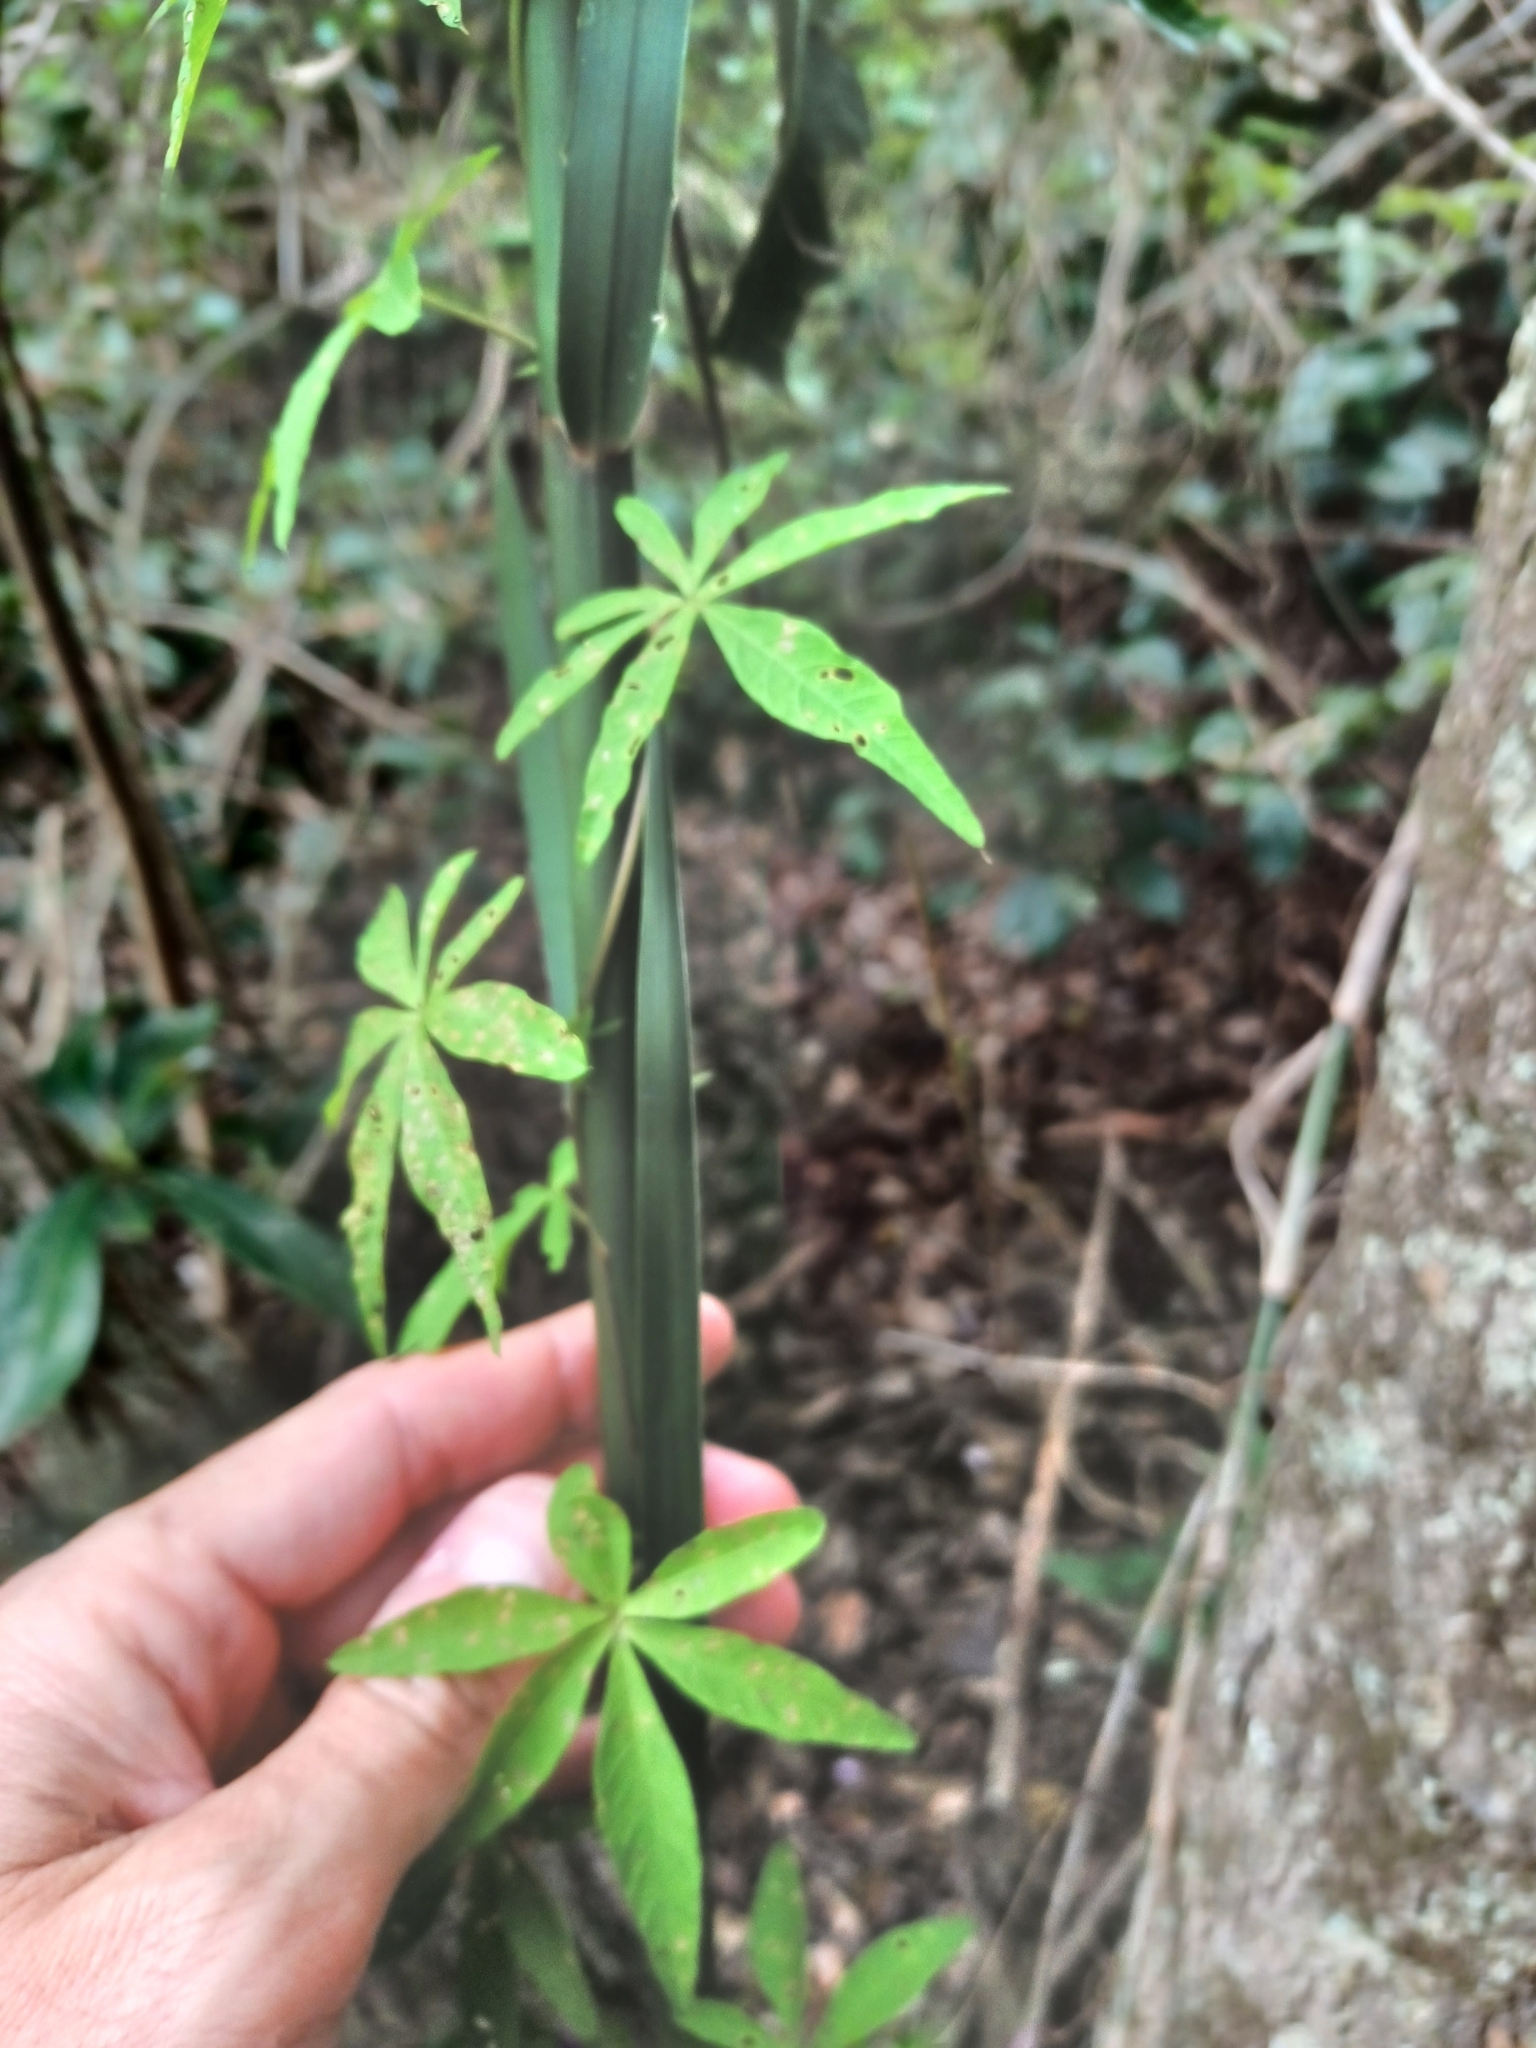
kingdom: Plantae
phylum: Tracheophyta
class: Magnoliopsida
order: Solanales
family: Convolvulaceae
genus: Ipomoea
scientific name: Ipomoea cairica
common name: Mile a minute vine
